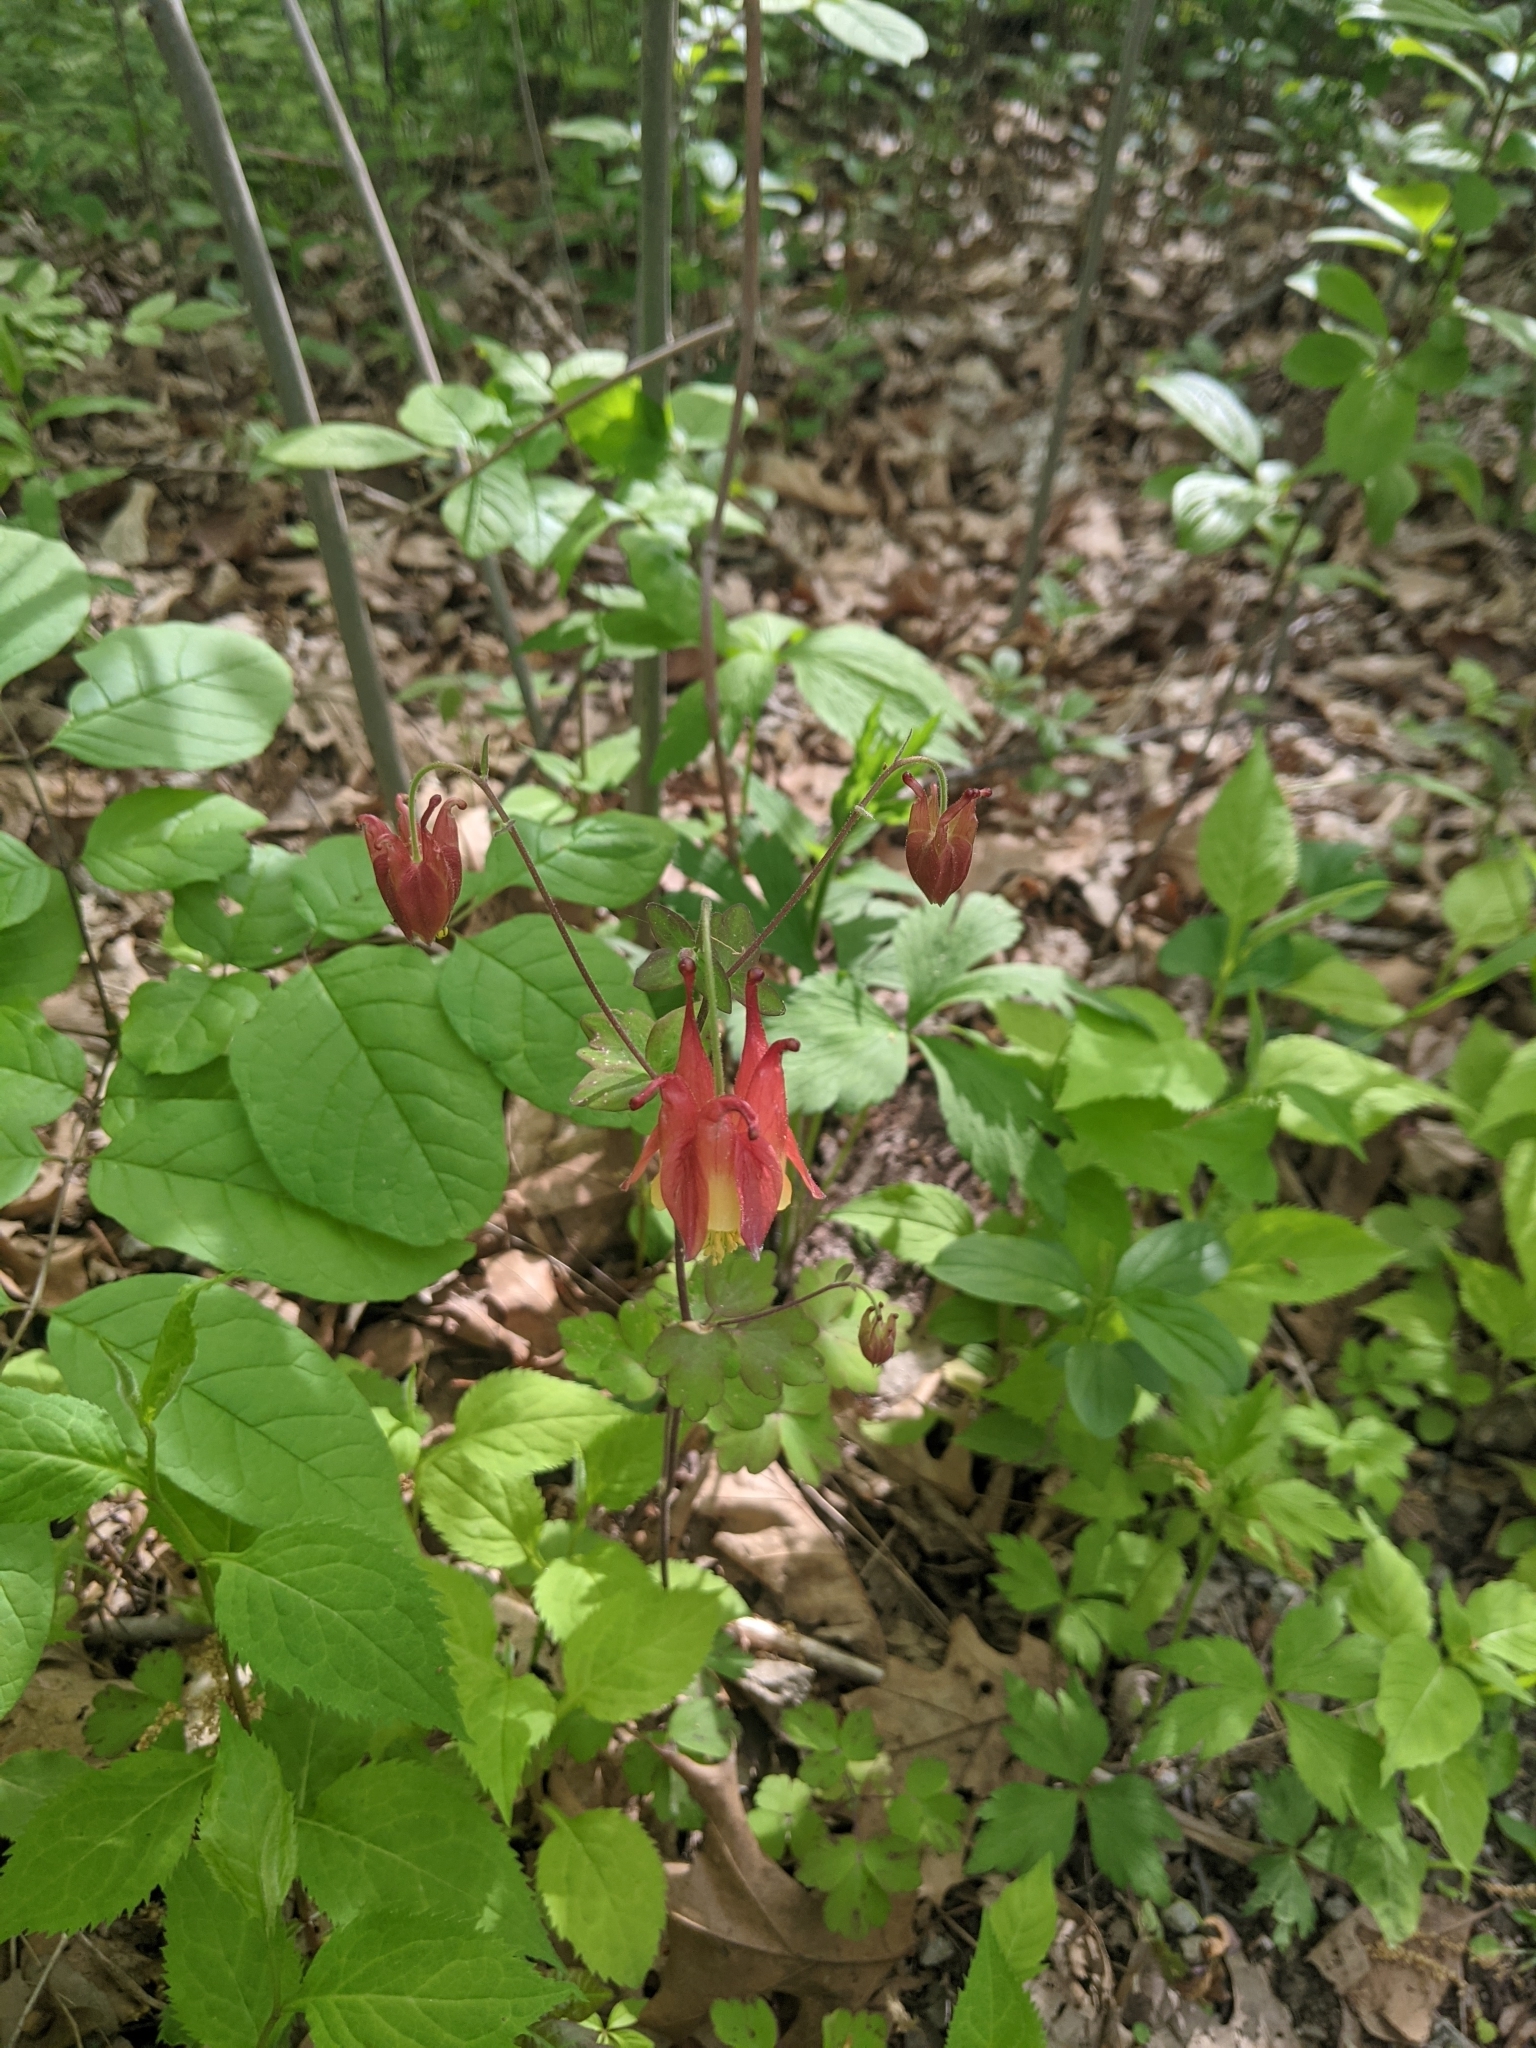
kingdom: Plantae
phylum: Tracheophyta
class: Magnoliopsida
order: Ranunculales
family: Ranunculaceae
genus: Aquilegia
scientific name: Aquilegia canadensis
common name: American columbine
